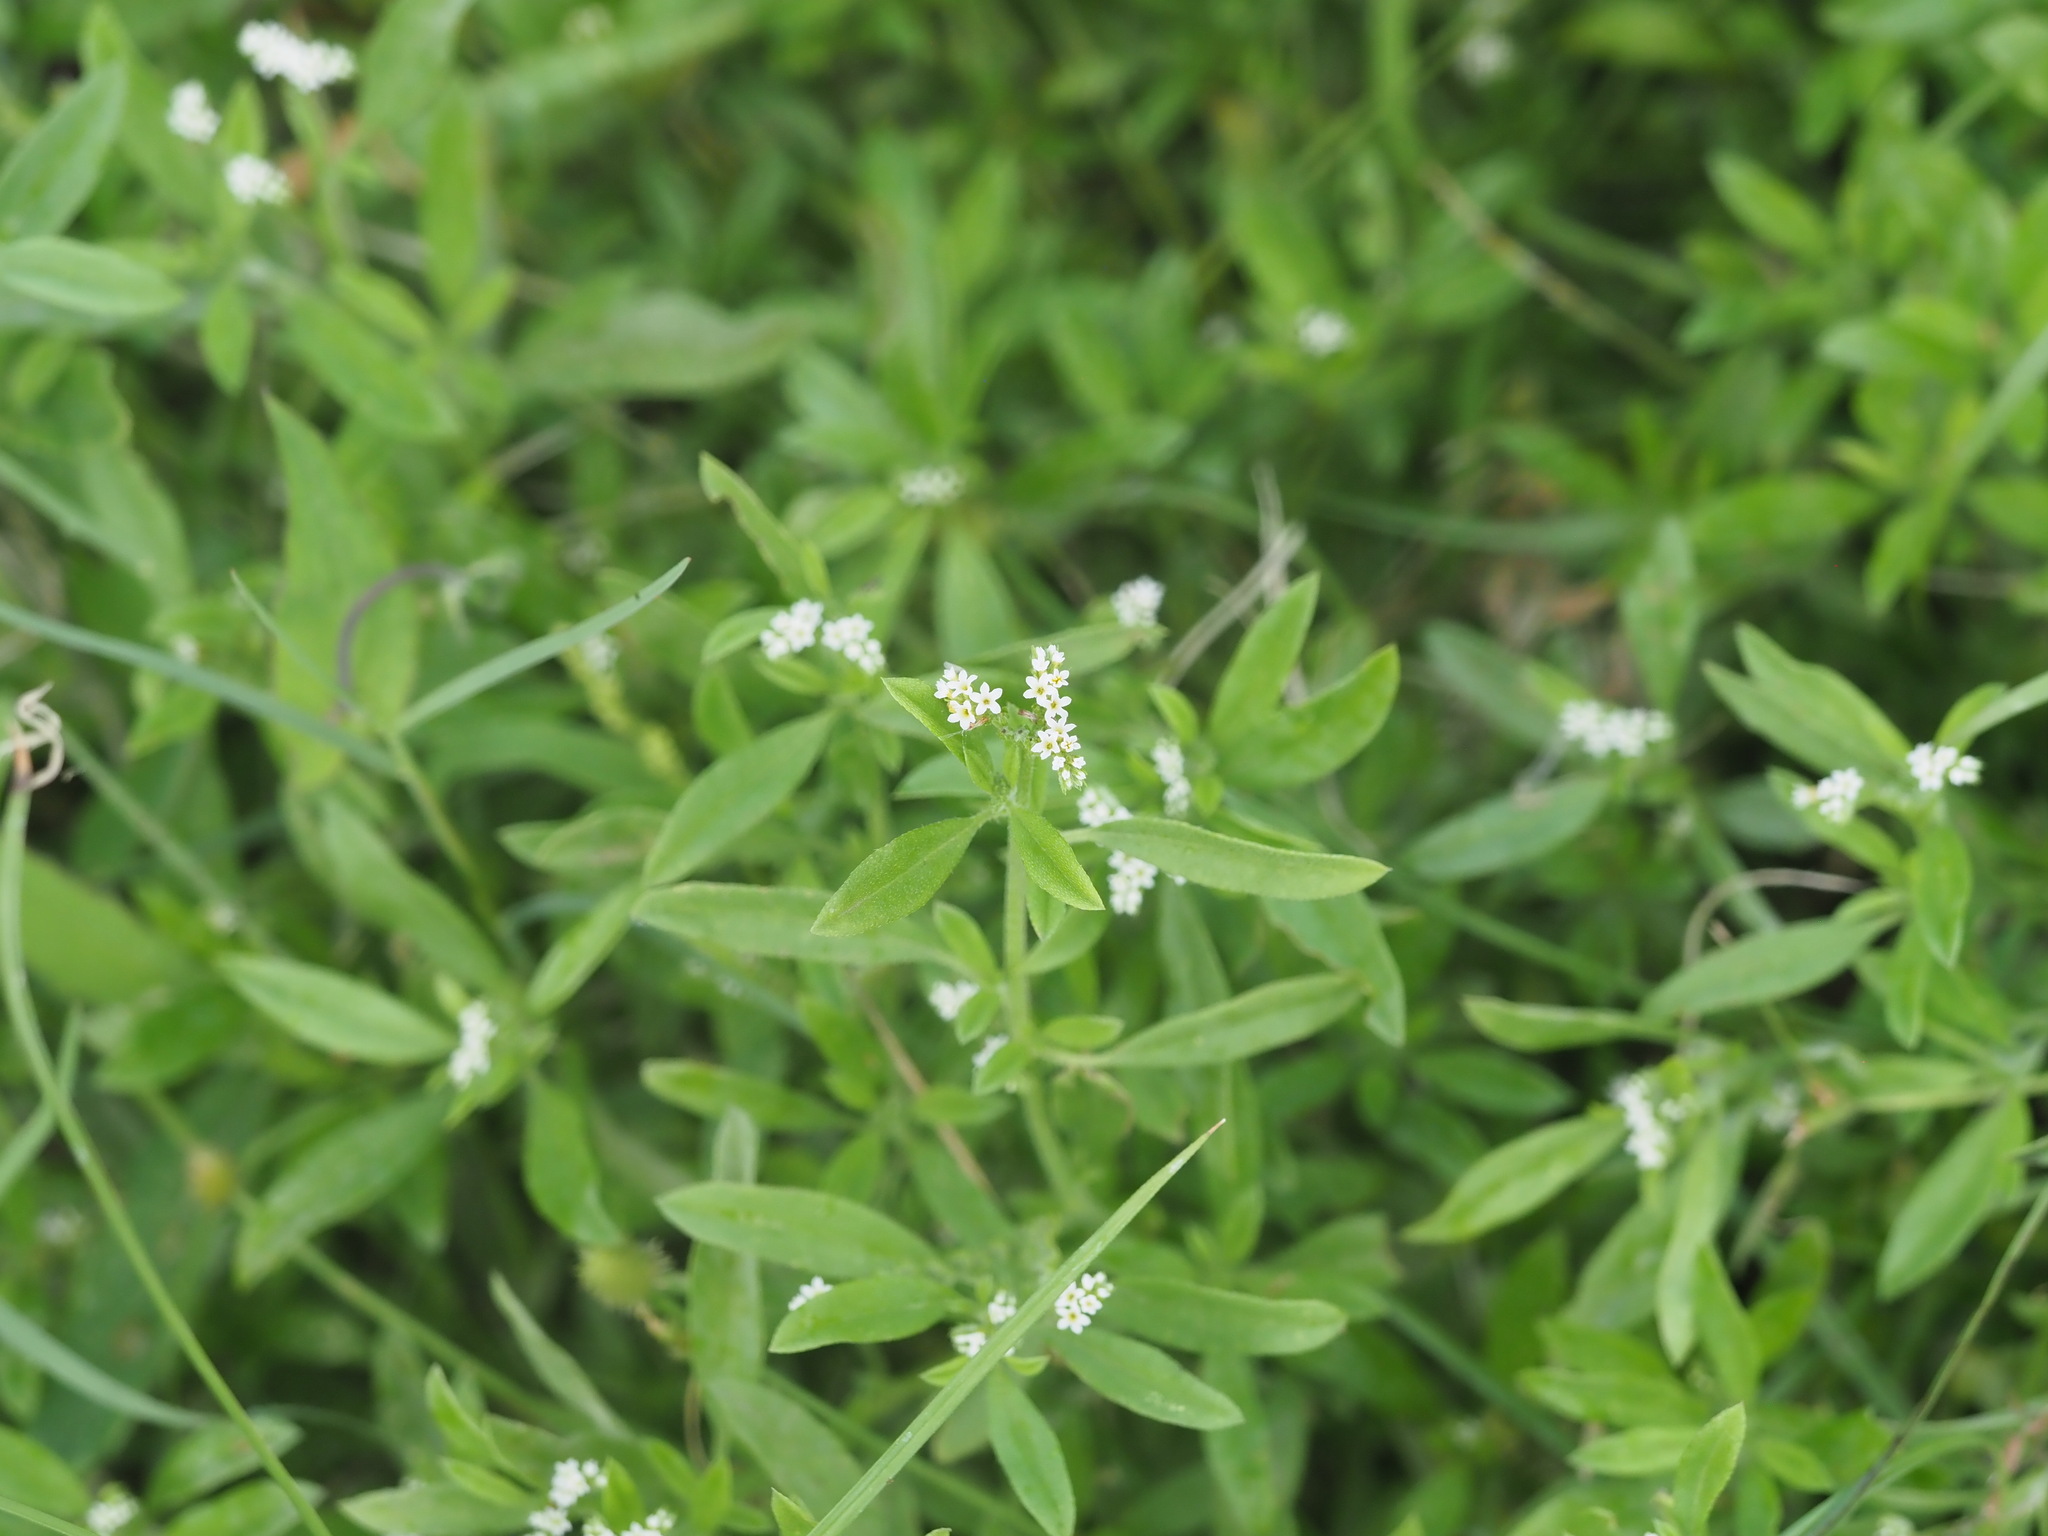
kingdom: Plantae
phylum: Tracheophyta
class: Magnoliopsida
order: Boraginales
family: Heliotropiaceae
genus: Euploca
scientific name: Euploca procumbens
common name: Fourspike heliotrope
